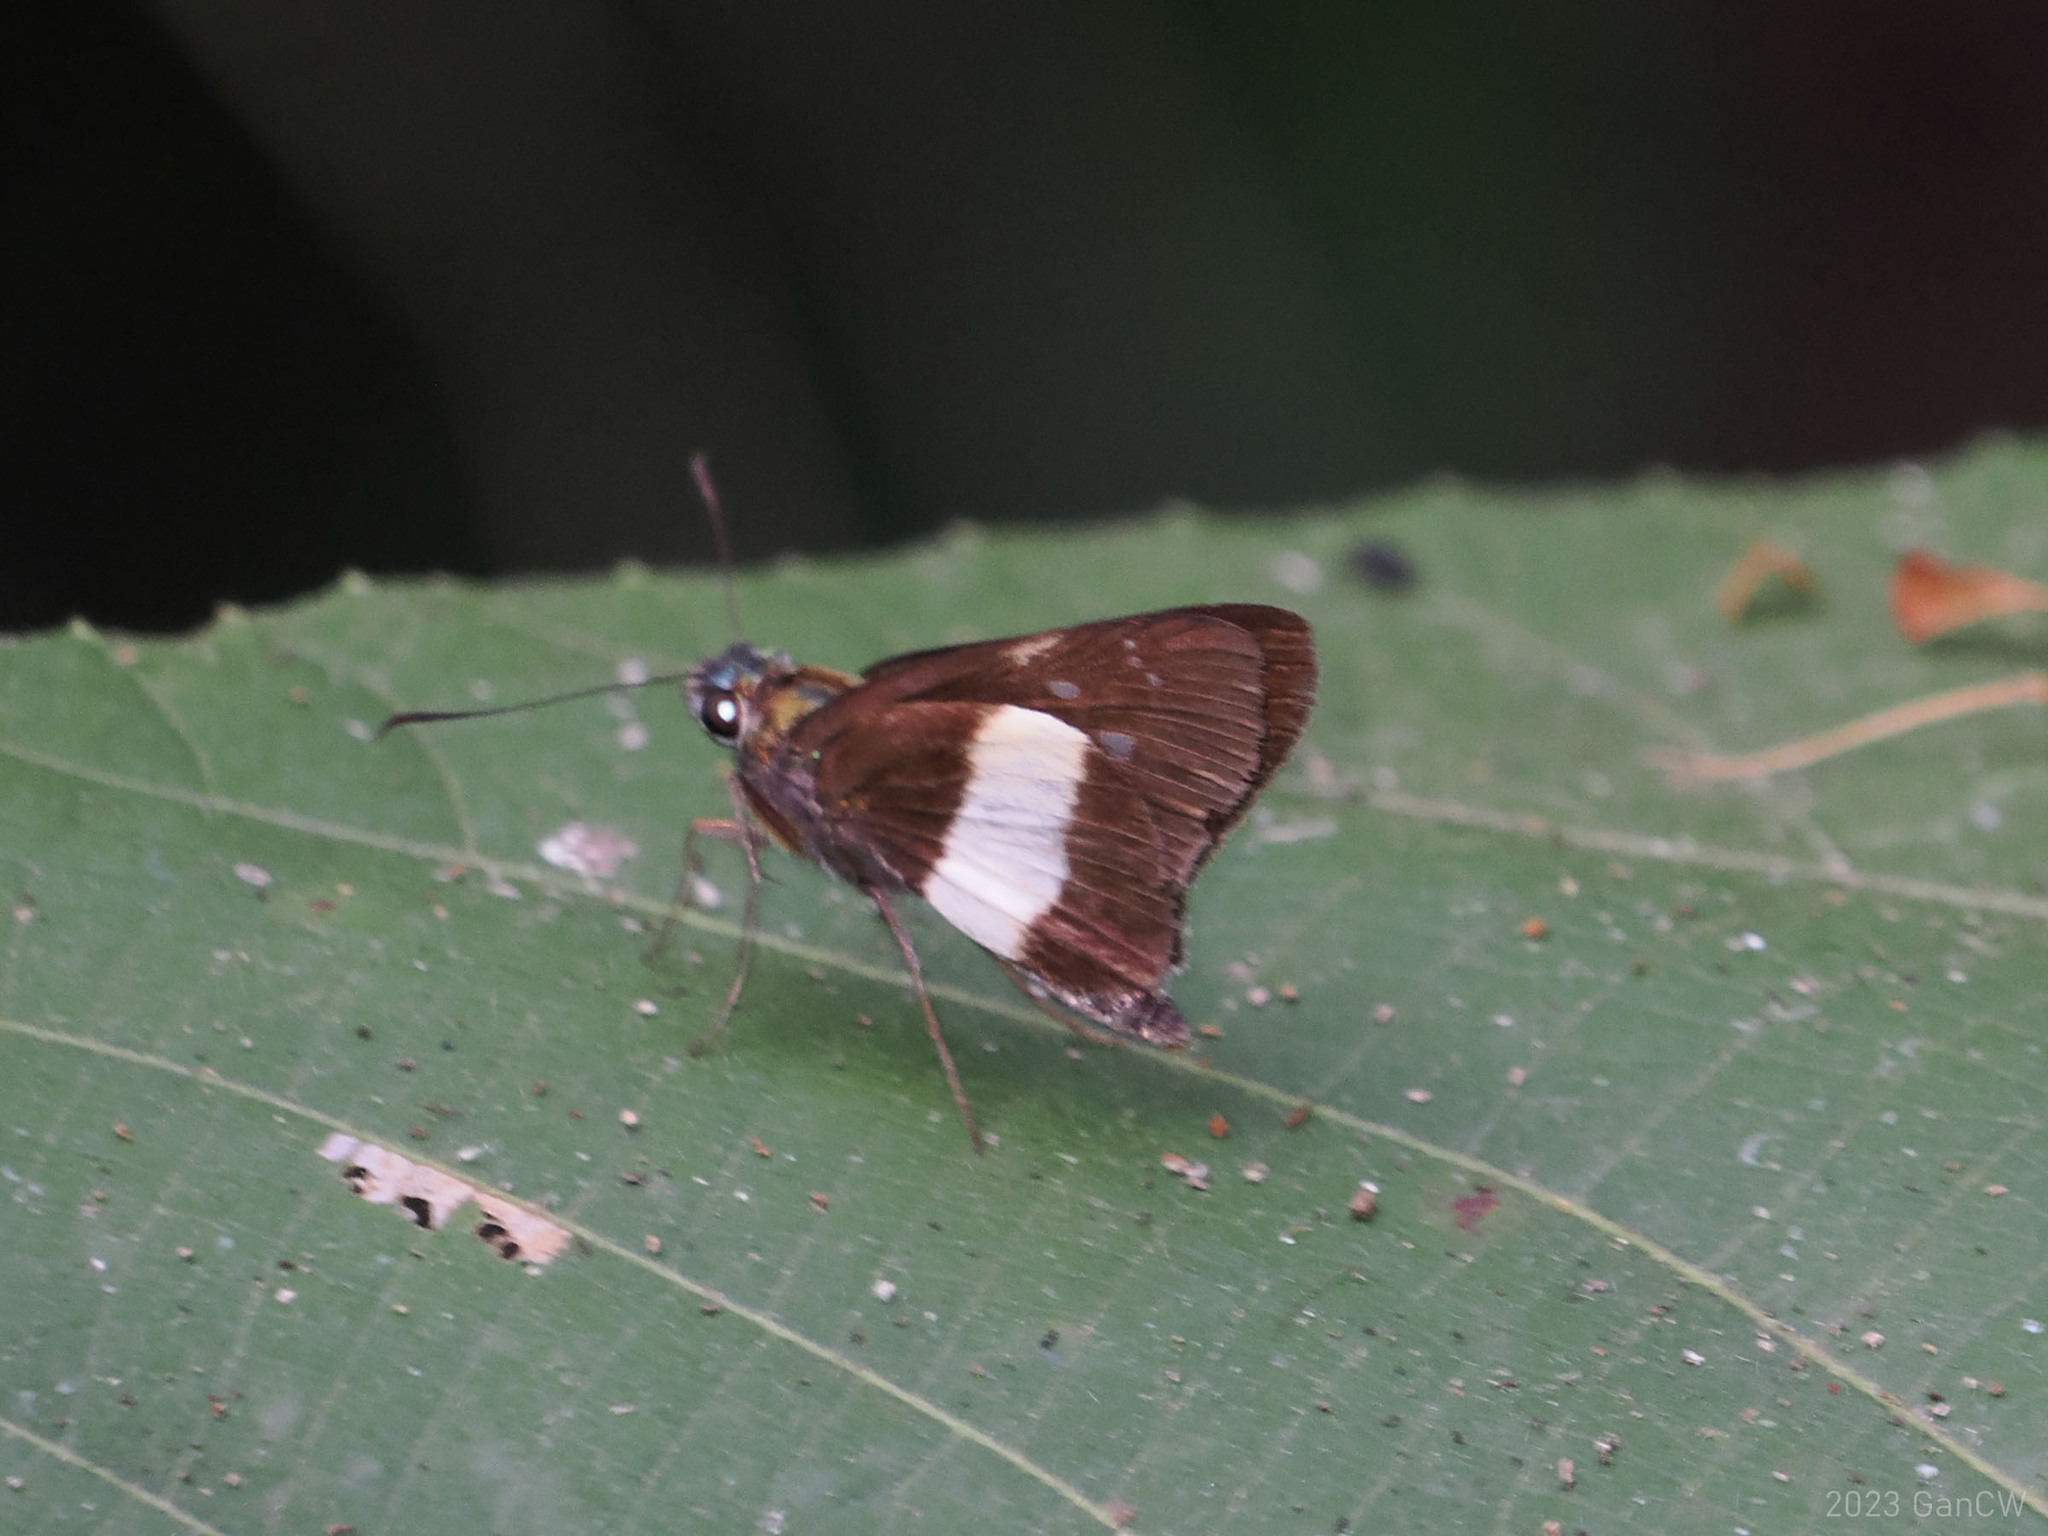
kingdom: Animalia
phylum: Arthropoda
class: Insecta
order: Lepidoptera
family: Hesperiidae
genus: Acerbas
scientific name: Acerbas duris
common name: Banded palmer
